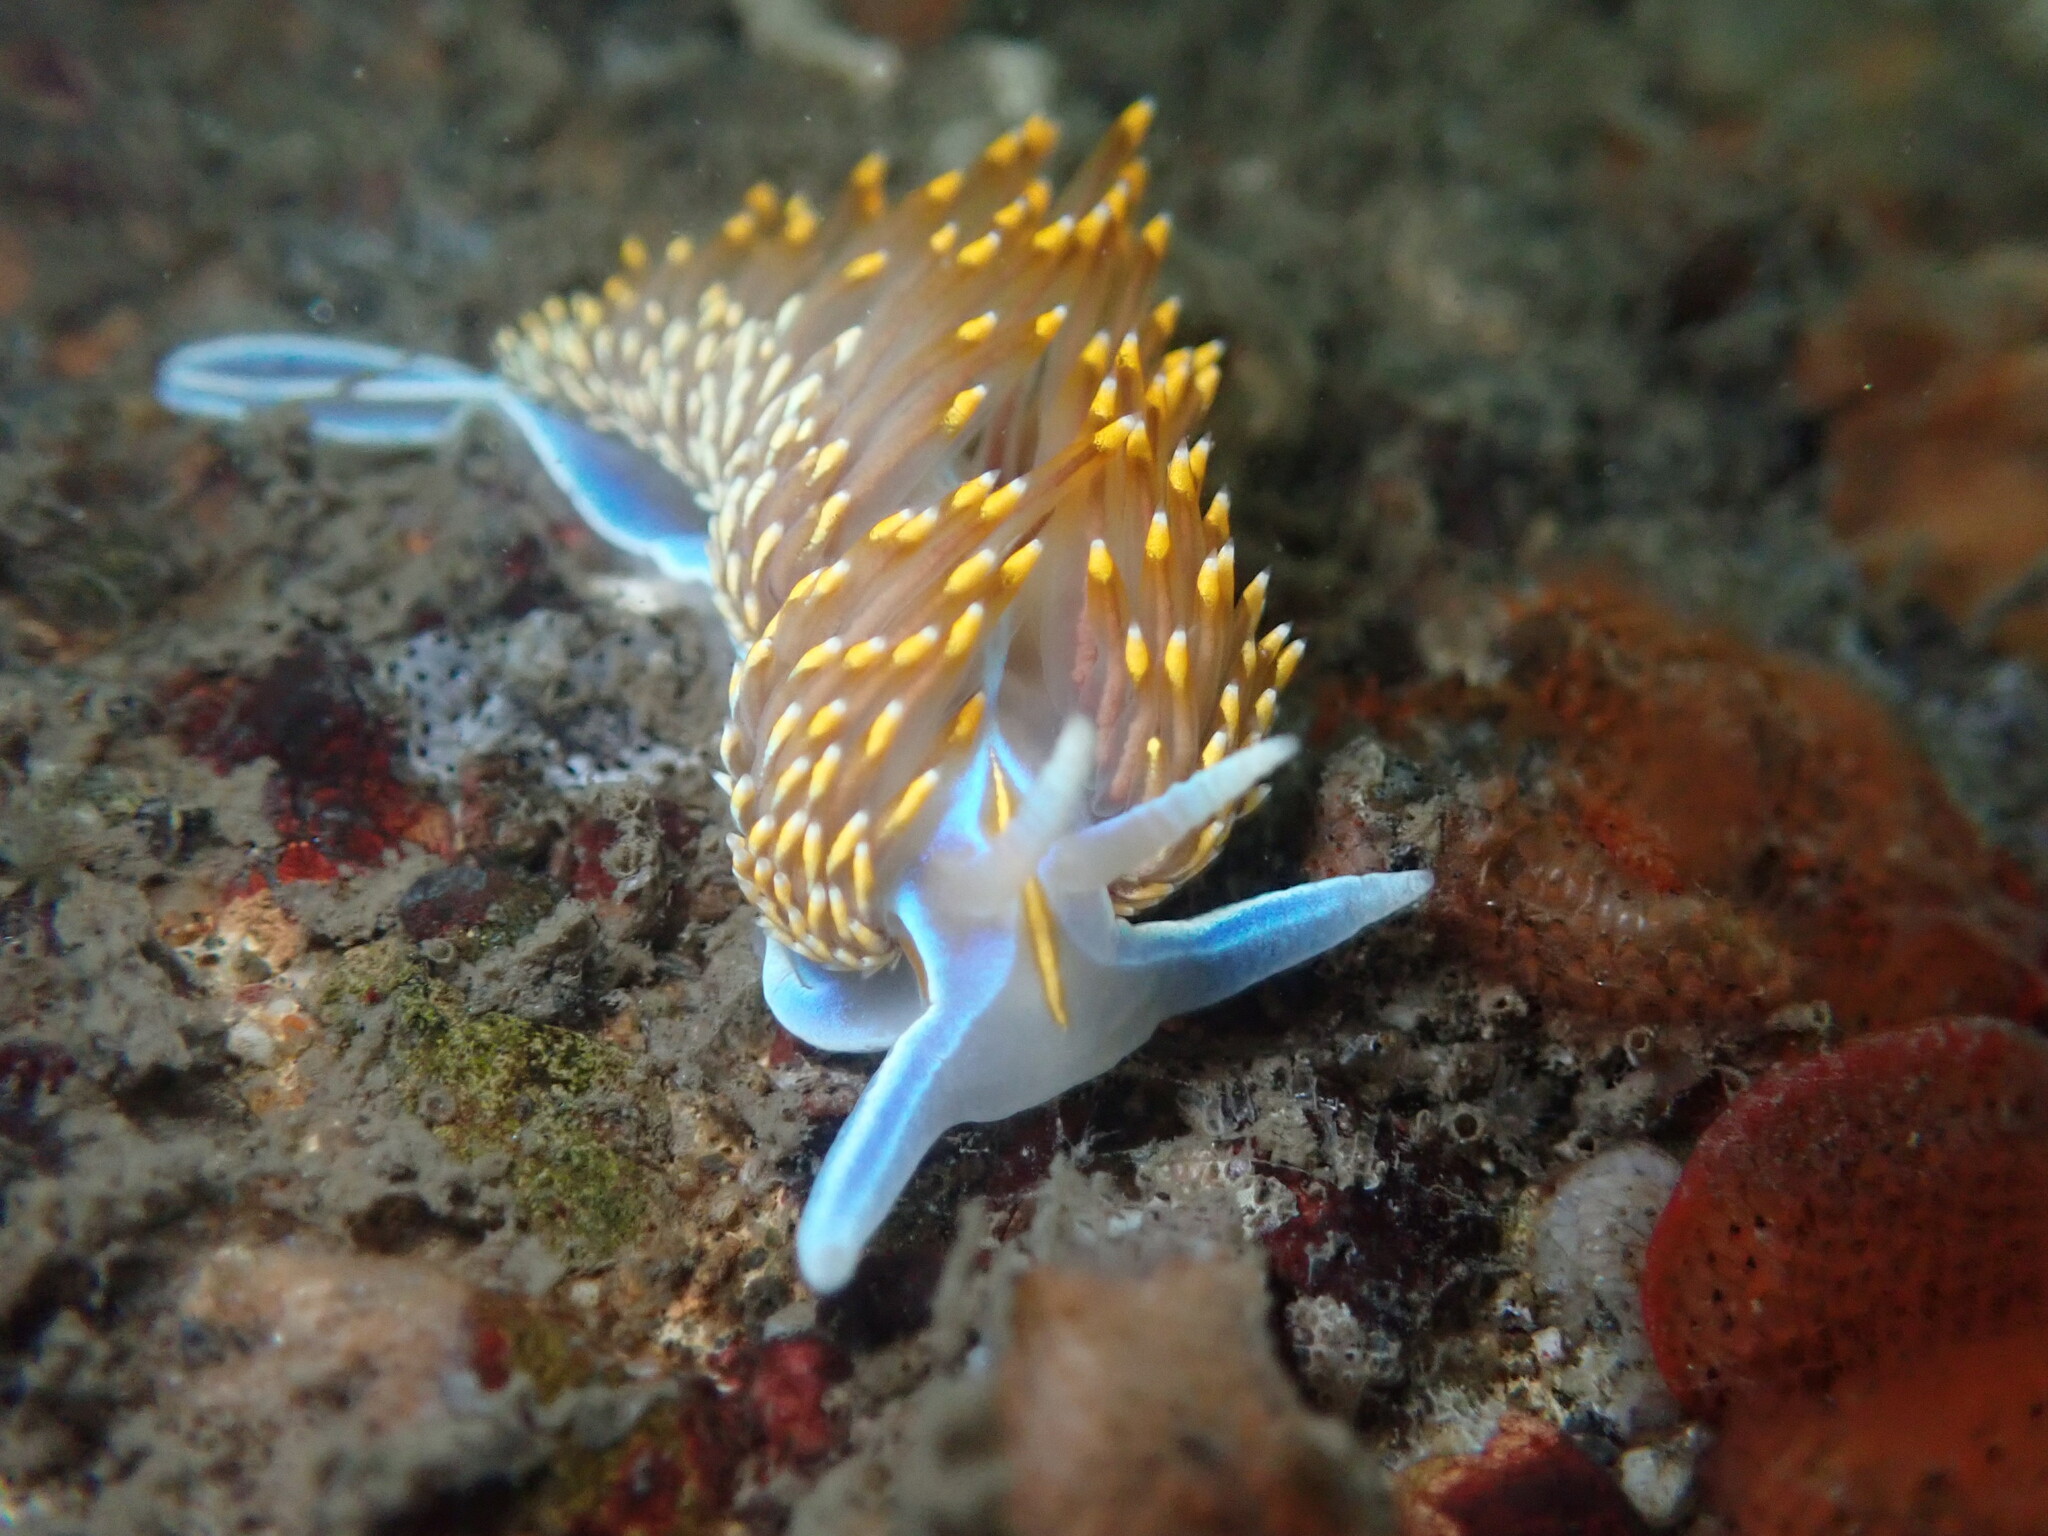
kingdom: Animalia
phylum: Mollusca
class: Gastropoda
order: Nudibranchia
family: Myrrhinidae
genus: Hermissenda
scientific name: Hermissenda opalescens
